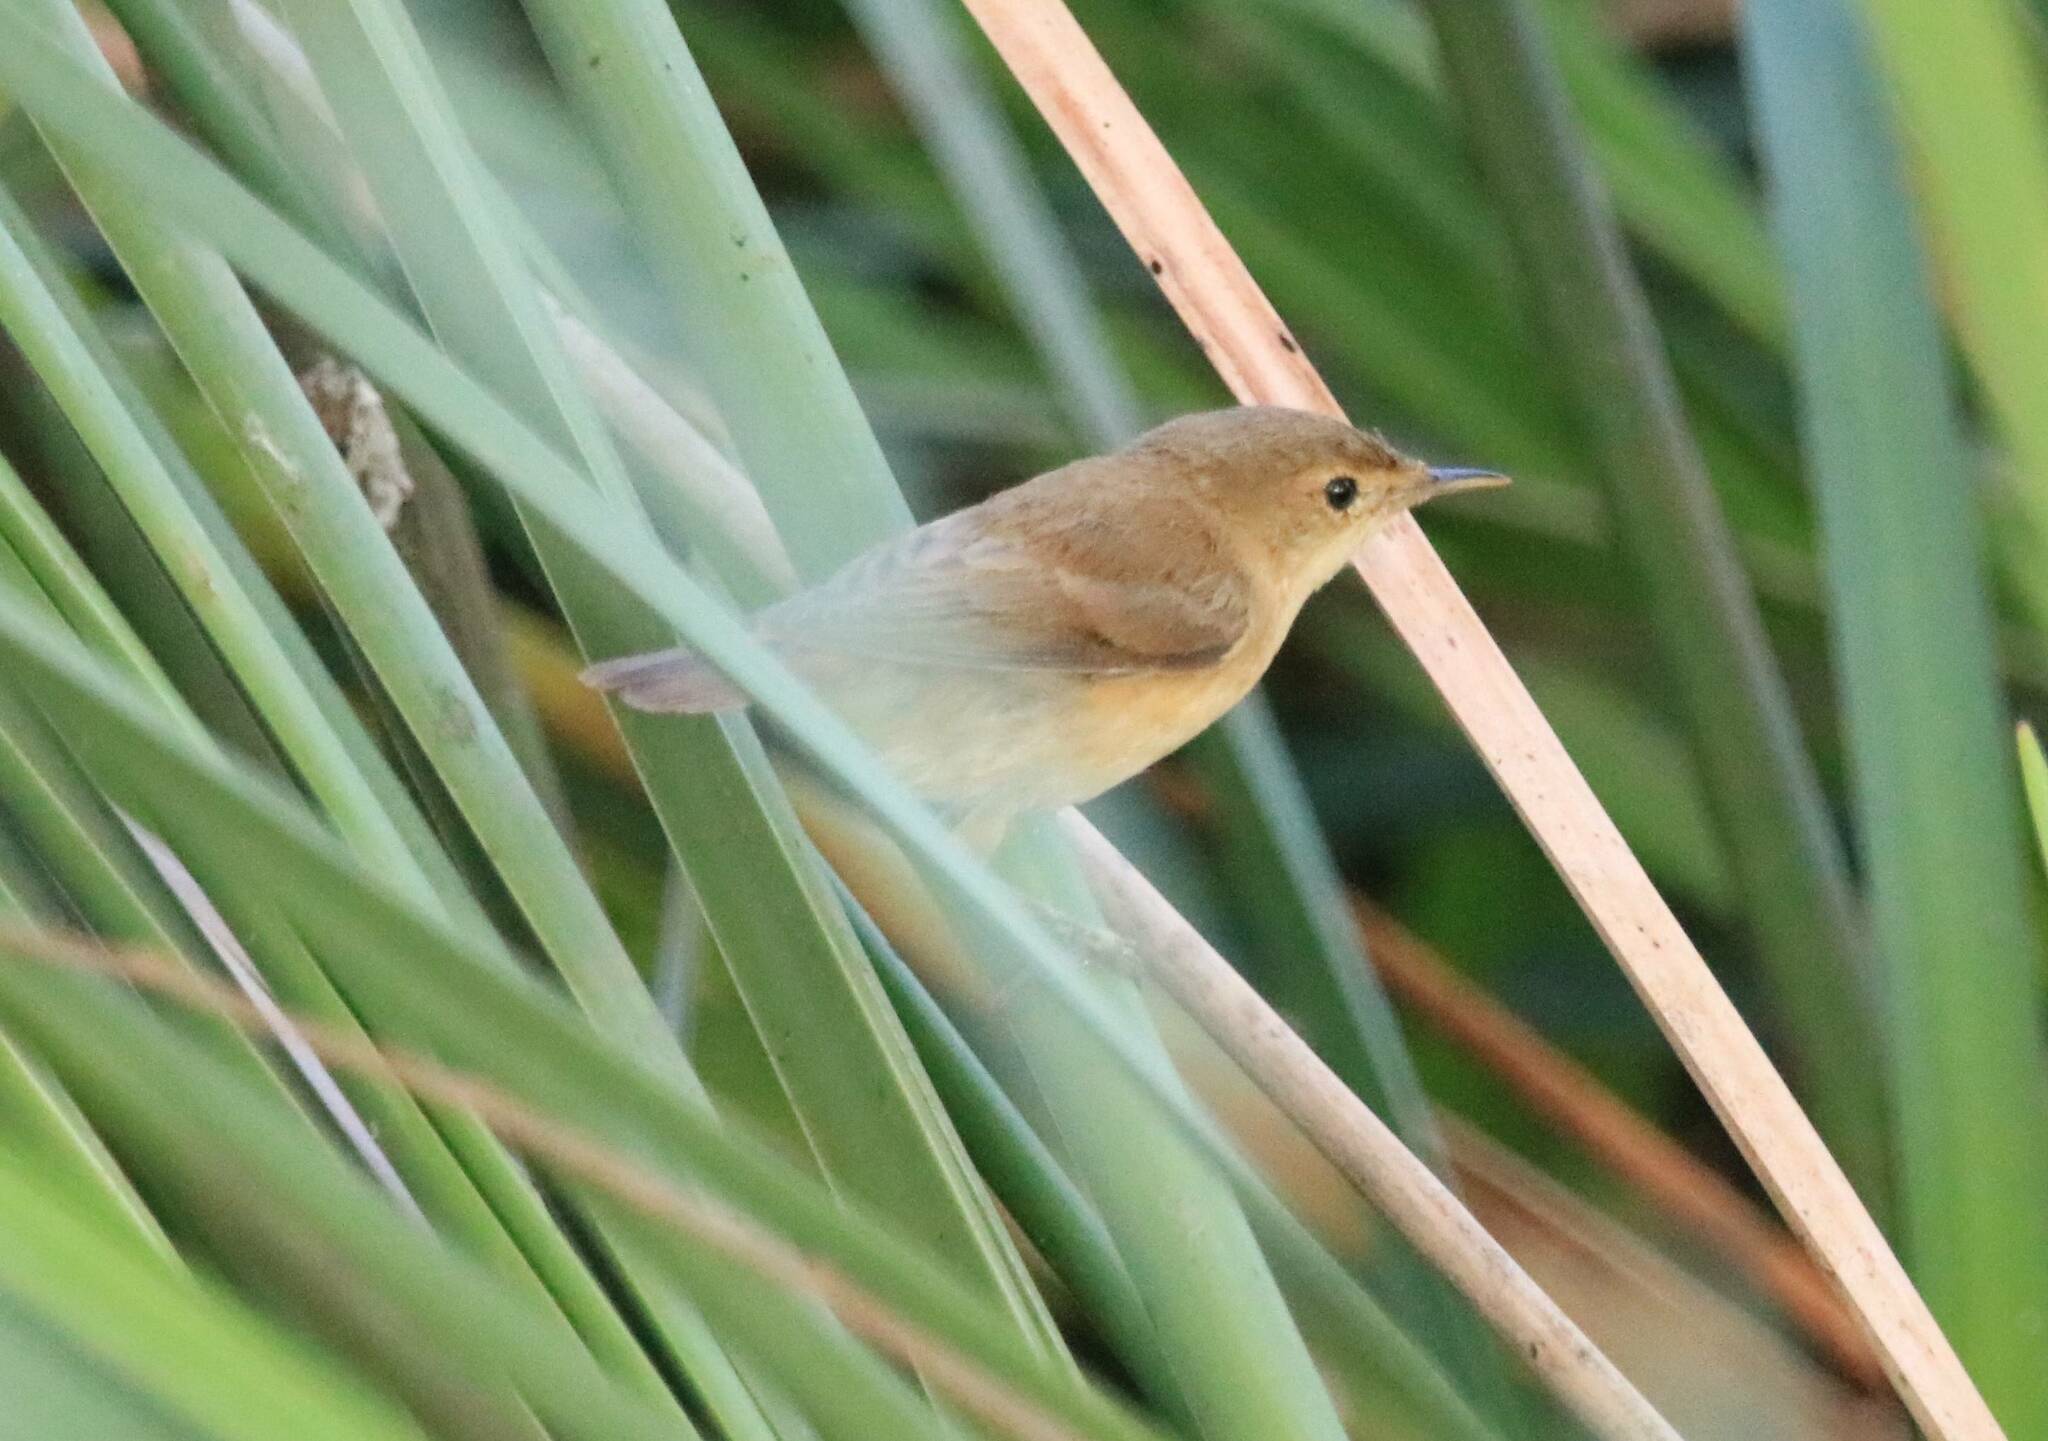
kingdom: Animalia
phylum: Chordata
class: Aves
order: Passeriformes
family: Acrocephalidae
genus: Acrocephalus
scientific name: Acrocephalus scirpaceus
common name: Eurasian reed warbler
